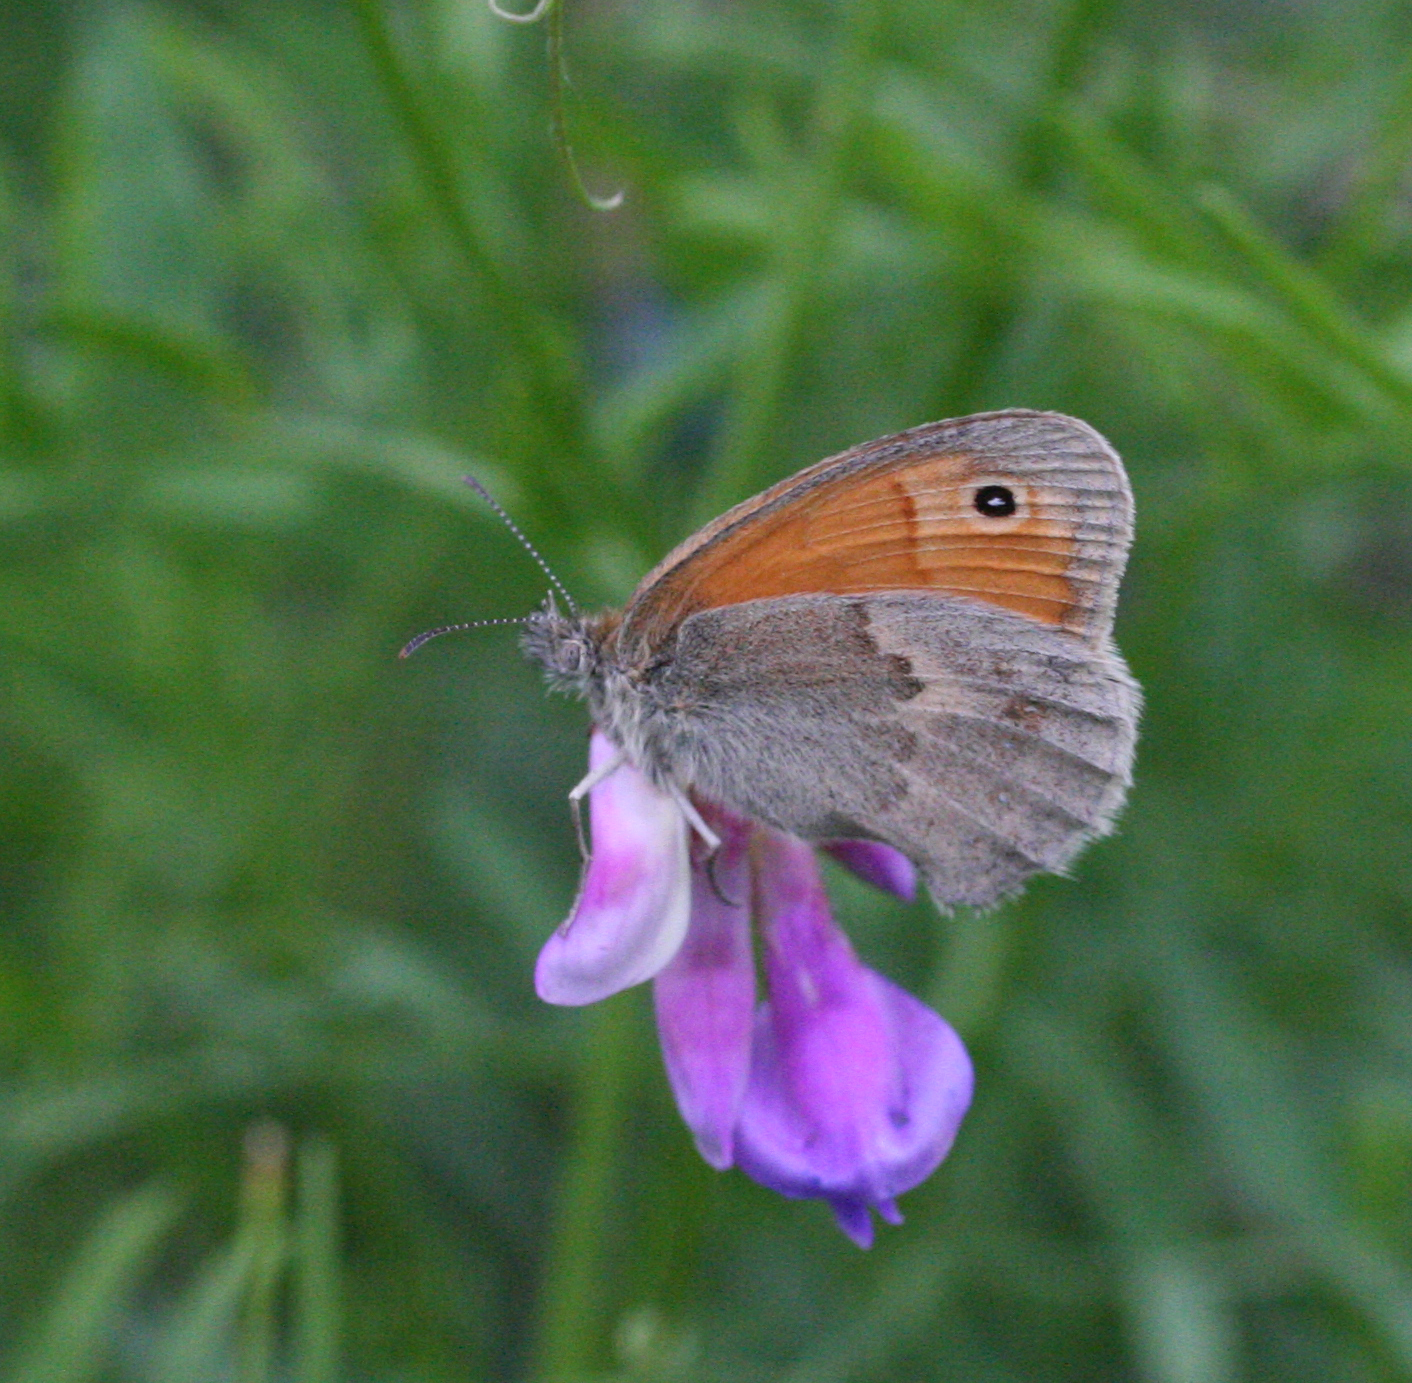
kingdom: Animalia
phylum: Arthropoda
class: Insecta
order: Lepidoptera
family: Nymphalidae
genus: Coenonympha
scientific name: Coenonympha pamphilus
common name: Small heath
